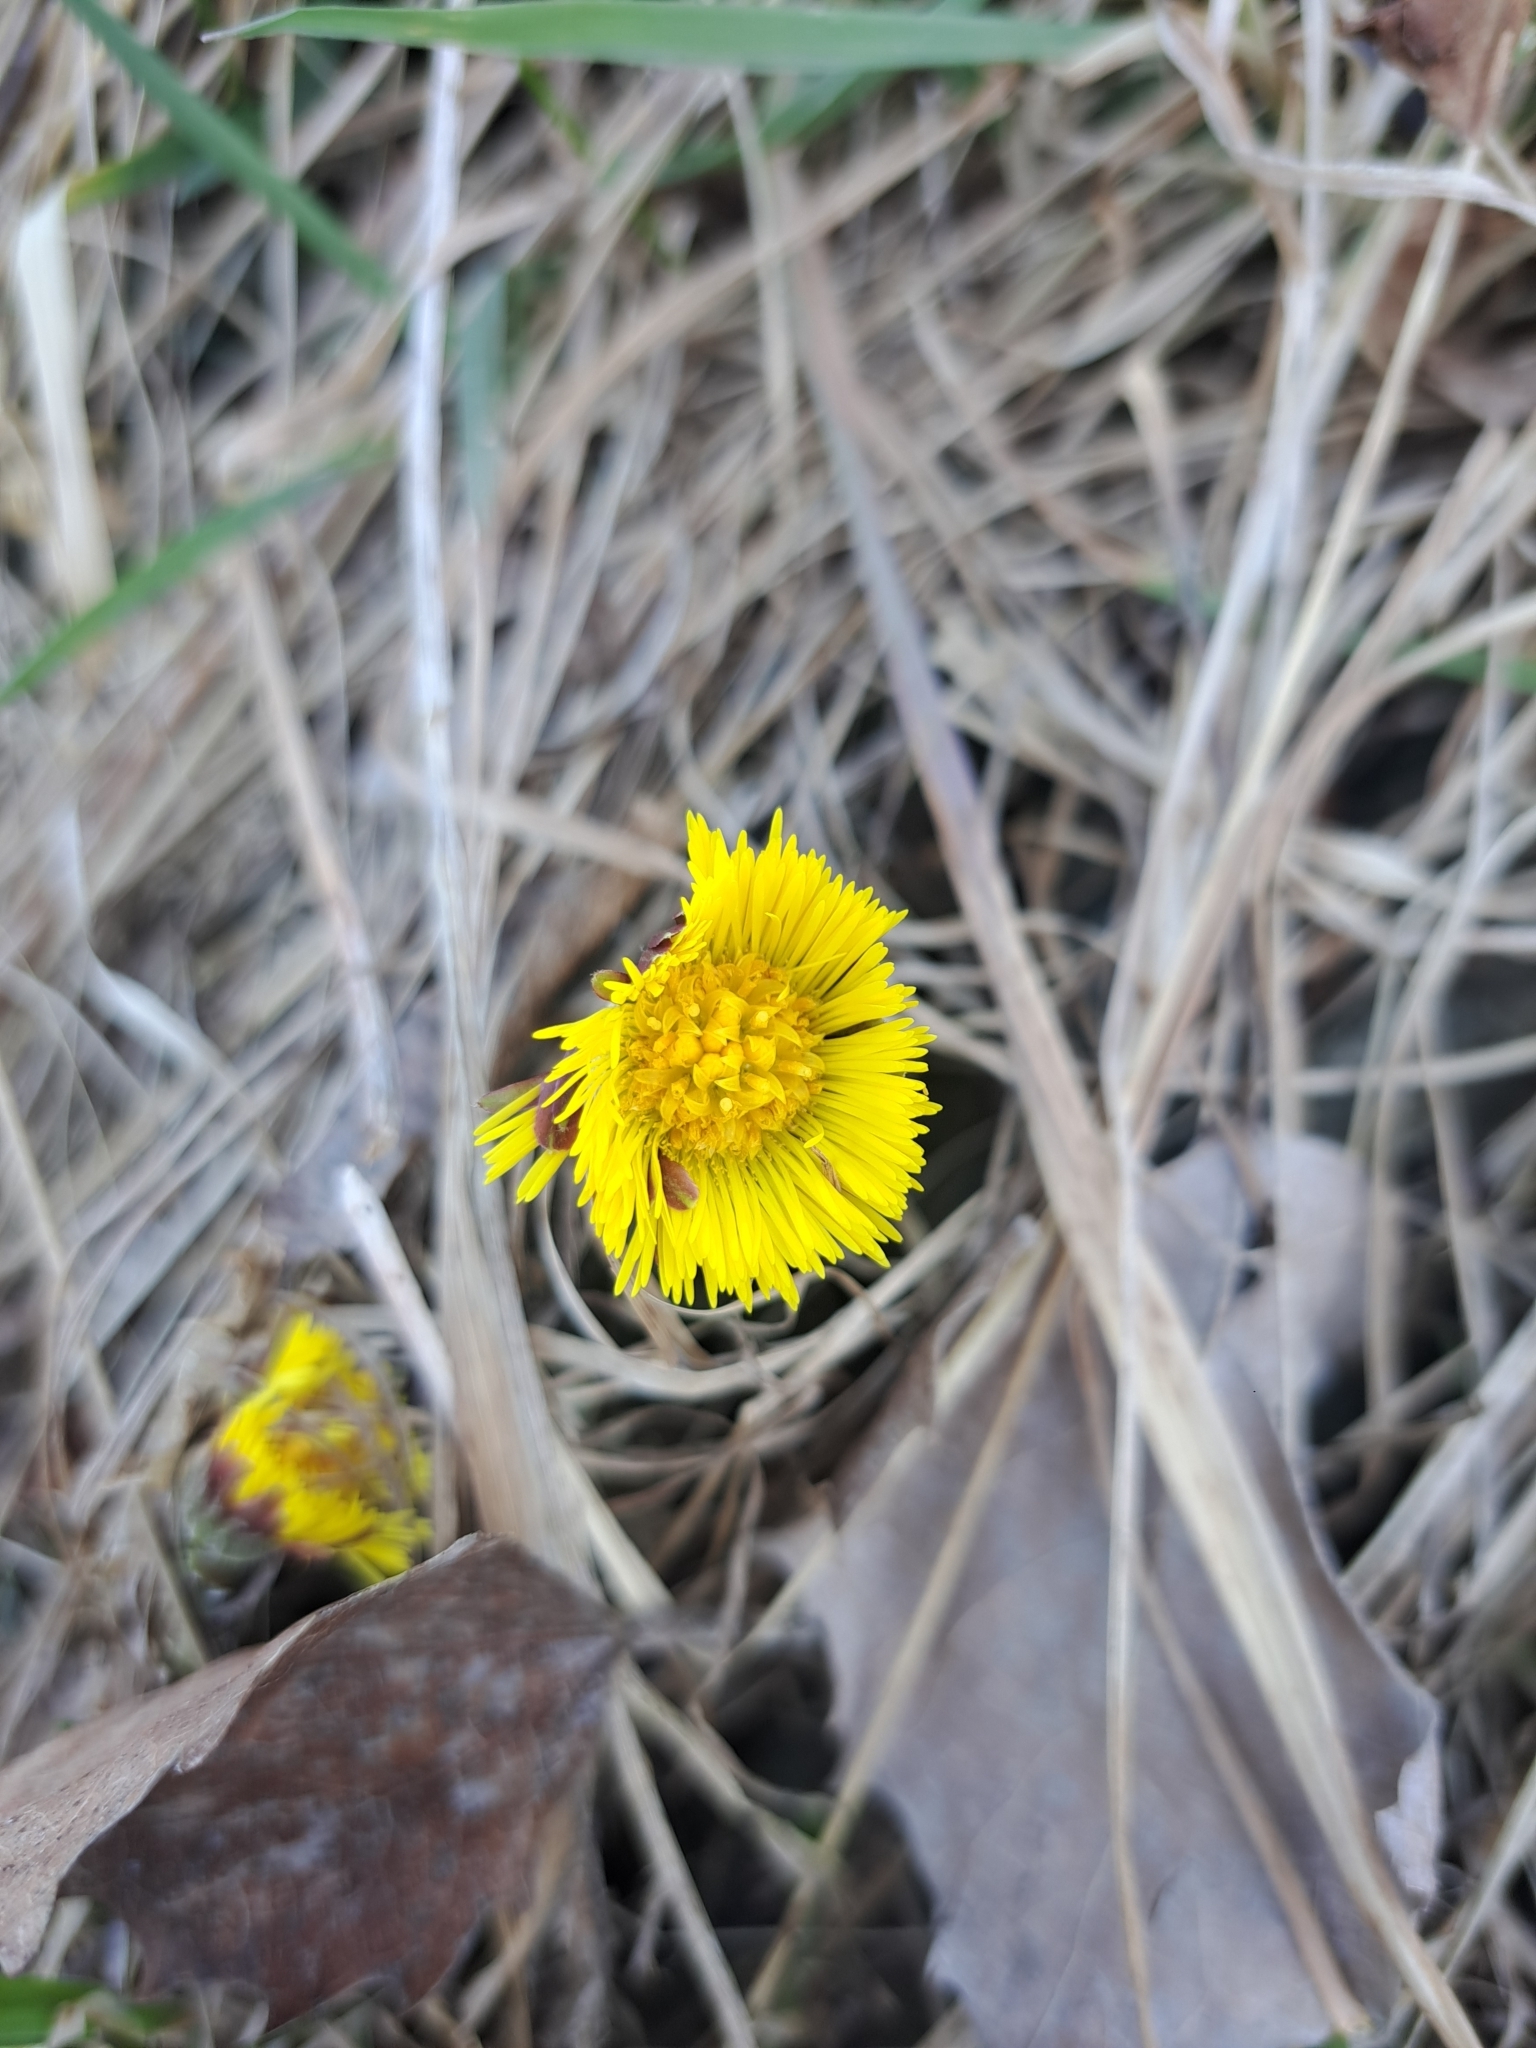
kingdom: Plantae
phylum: Tracheophyta
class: Magnoliopsida
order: Asterales
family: Asteraceae
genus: Tussilago
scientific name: Tussilago farfara
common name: Coltsfoot
